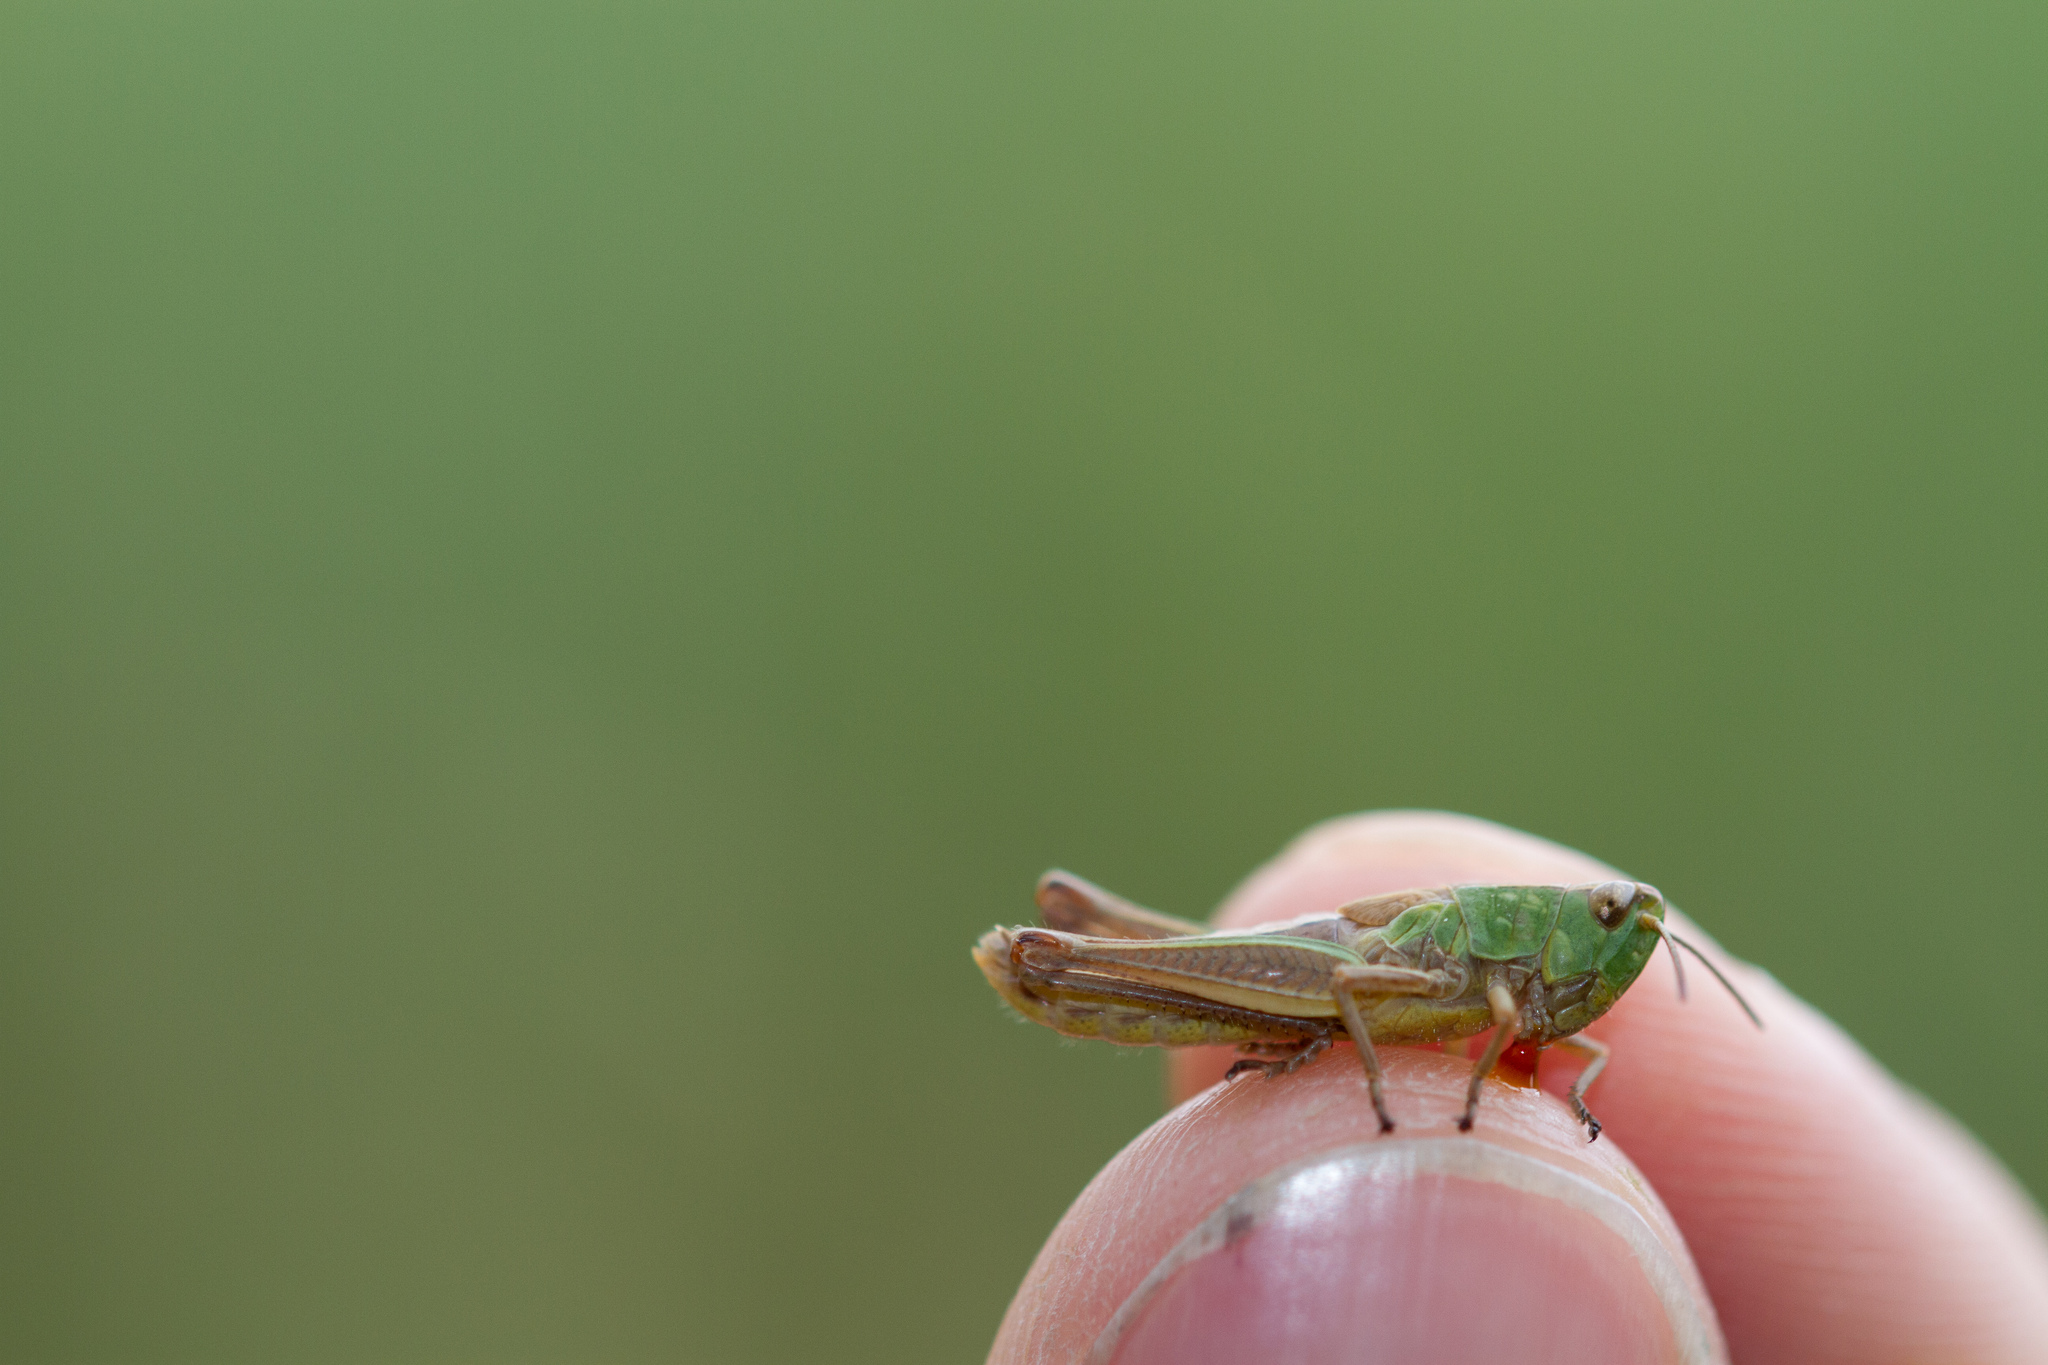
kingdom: Animalia
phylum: Arthropoda
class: Insecta
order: Orthoptera
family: Acrididae
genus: Pseudochorthippus
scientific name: Pseudochorthippus parallelus
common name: Meadow grasshopper
